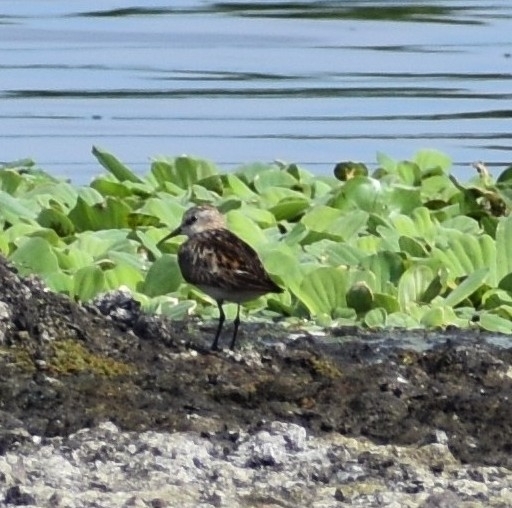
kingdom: Animalia
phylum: Chordata
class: Aves
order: Charadriiformes
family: Scolopacidae
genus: Calidris
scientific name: Calidris minuta
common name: Little stint
